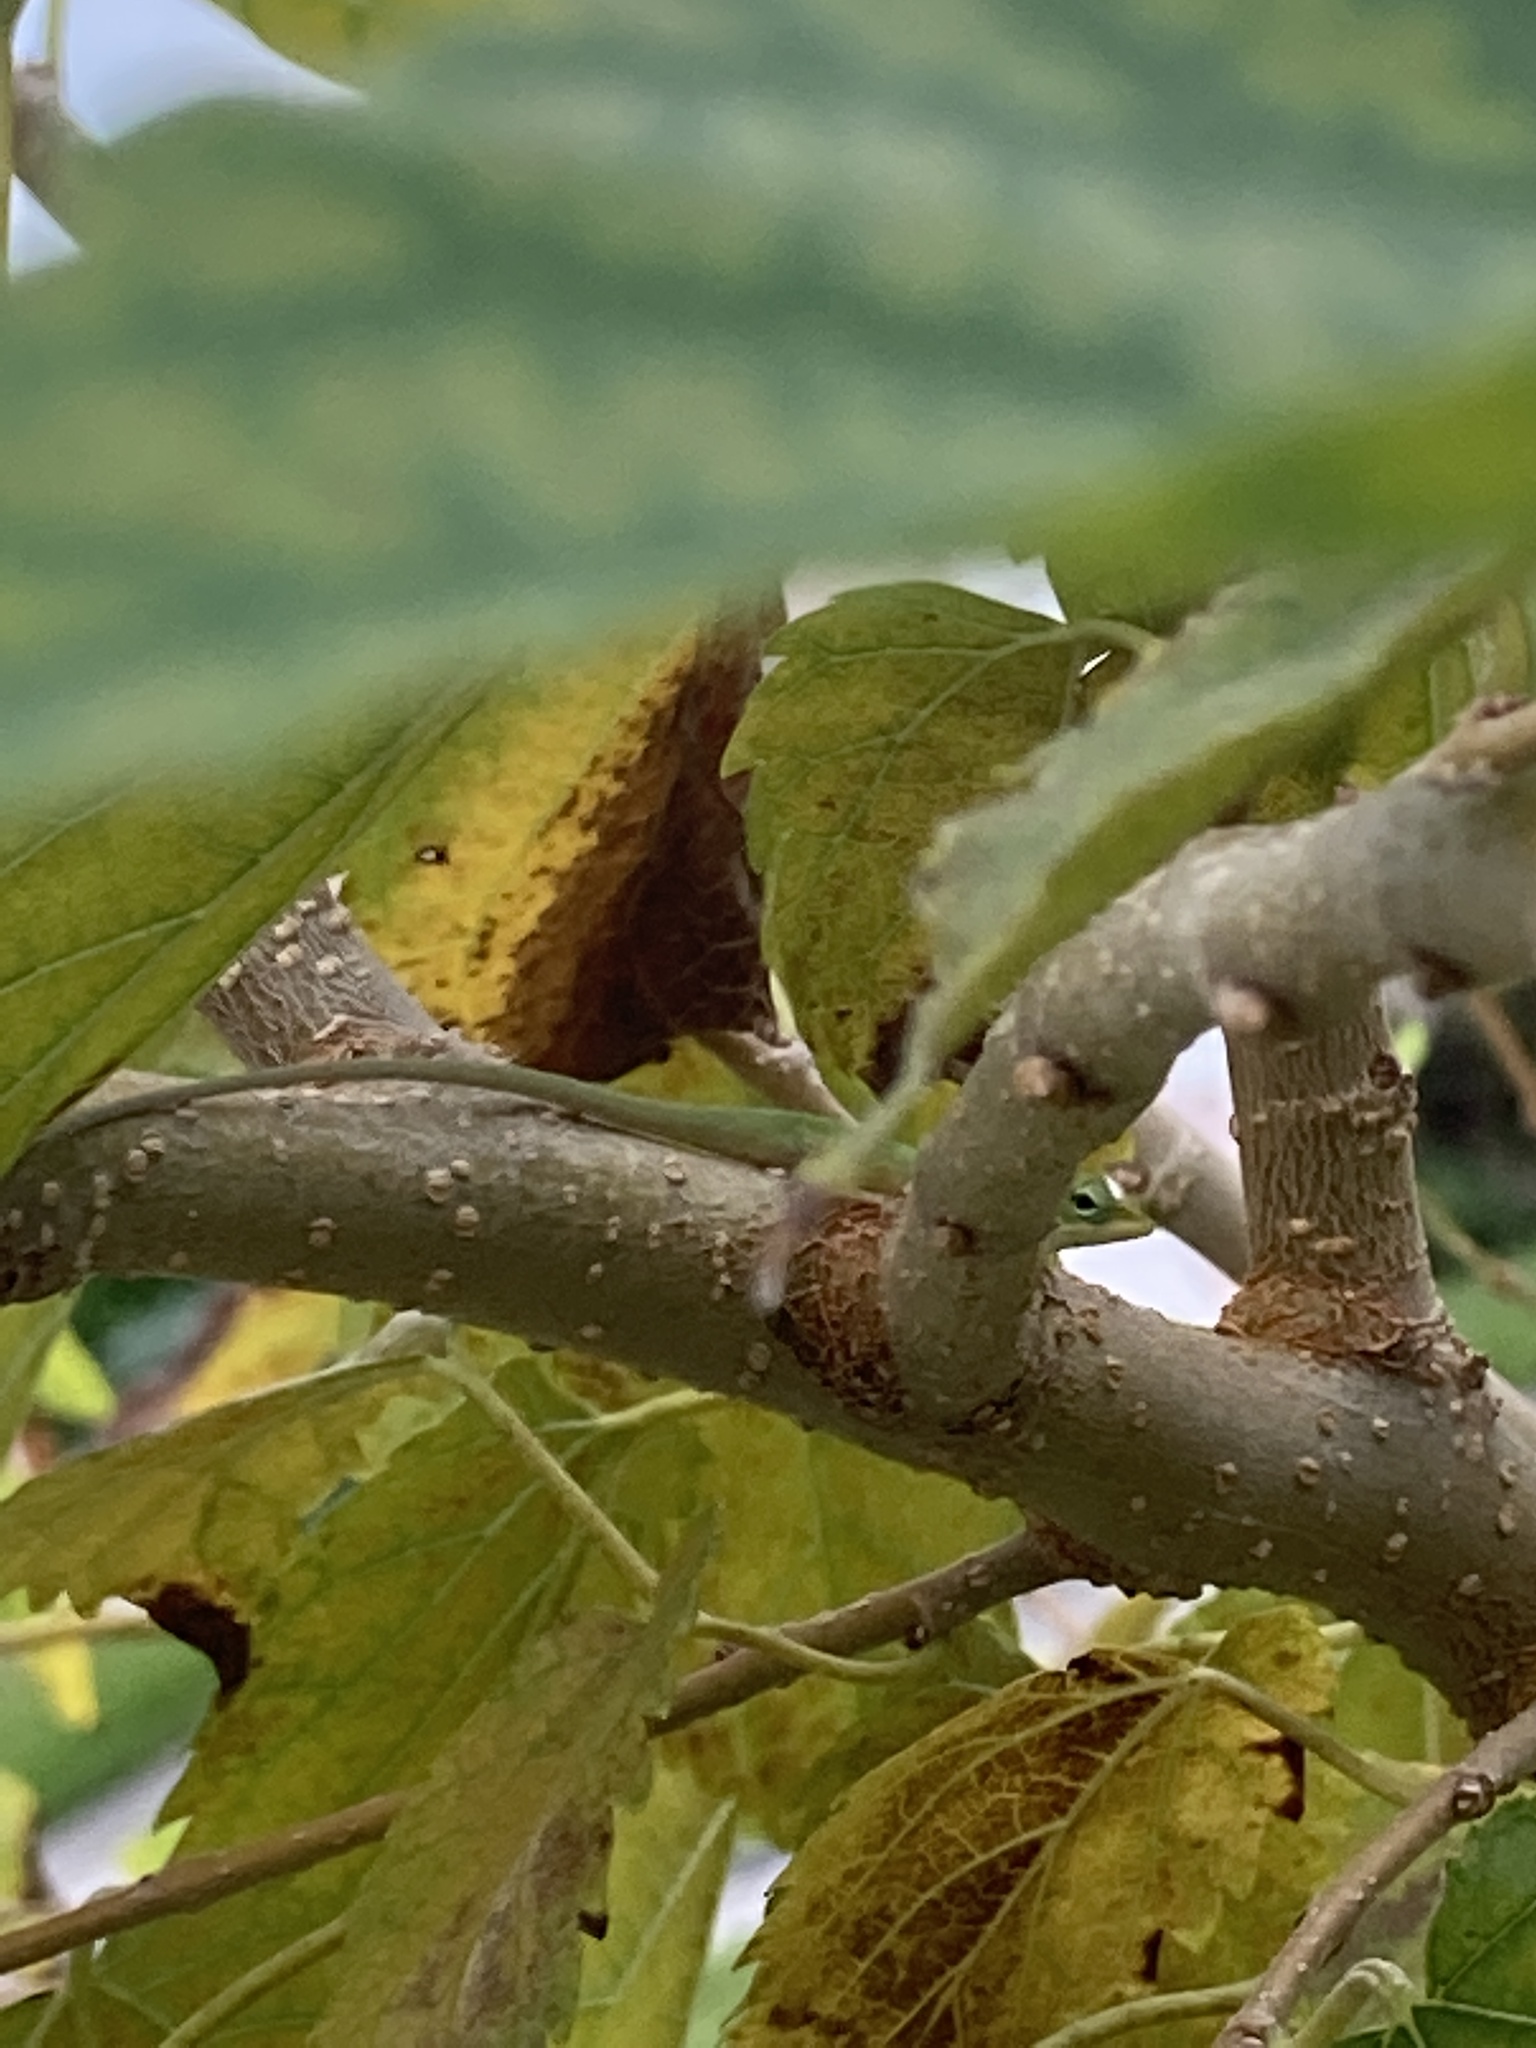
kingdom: Animalia
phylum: Chordata
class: Squamata
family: Dactyloidae
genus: Anolis
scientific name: Anolis carolinensis
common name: Green anole
